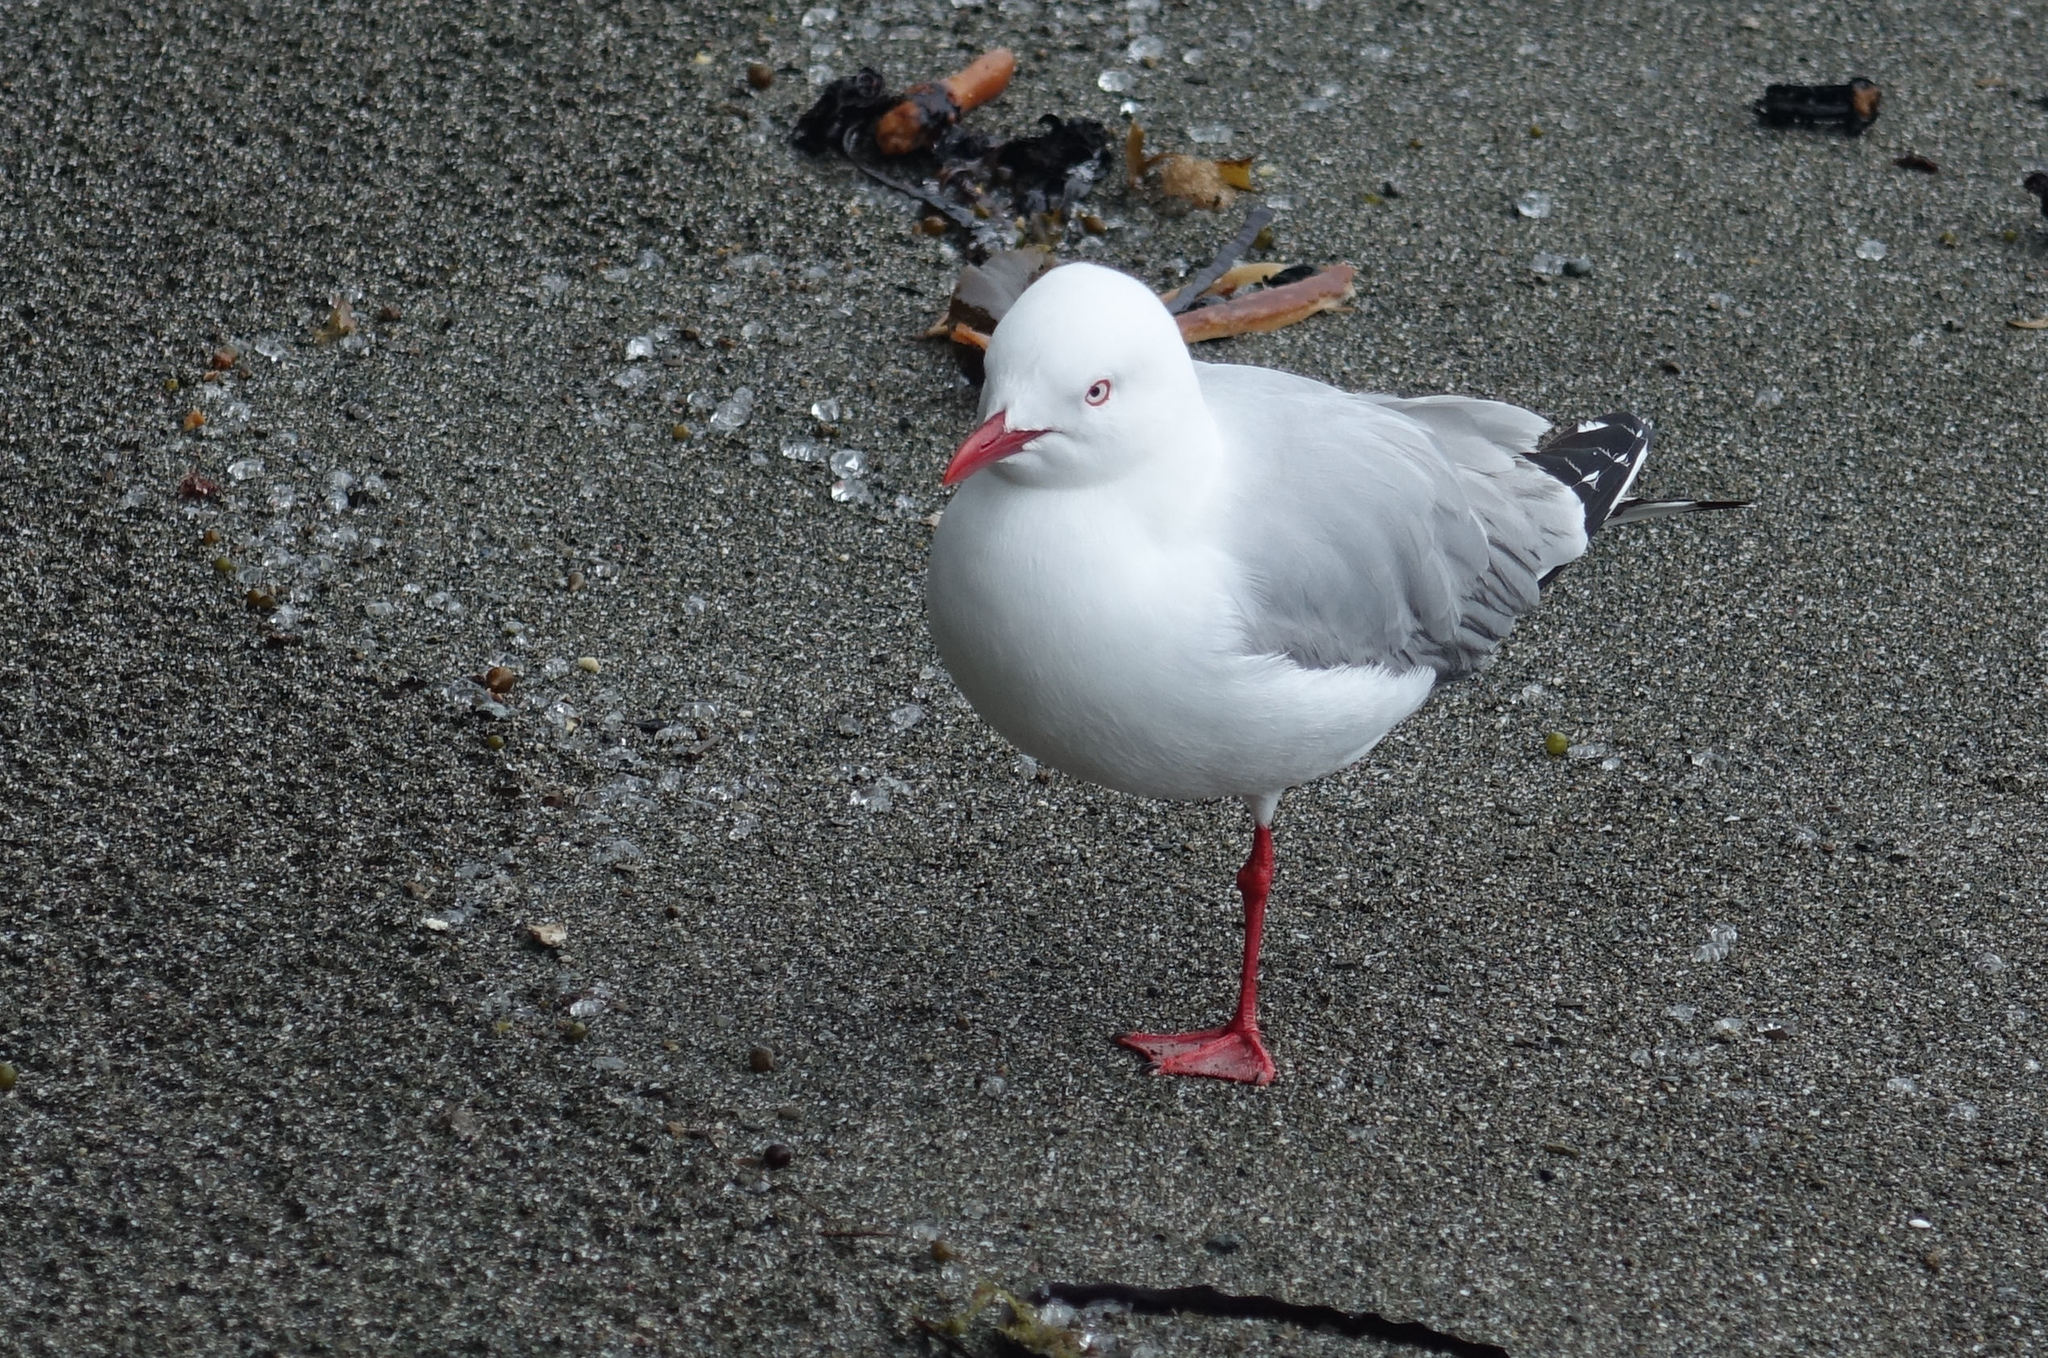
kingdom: Animalia
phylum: Chordata
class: Aves
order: Charadriiformes
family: Laridae
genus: Chroicocephalus
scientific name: Chroicocephalus novaehollandiae
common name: Silver gull
